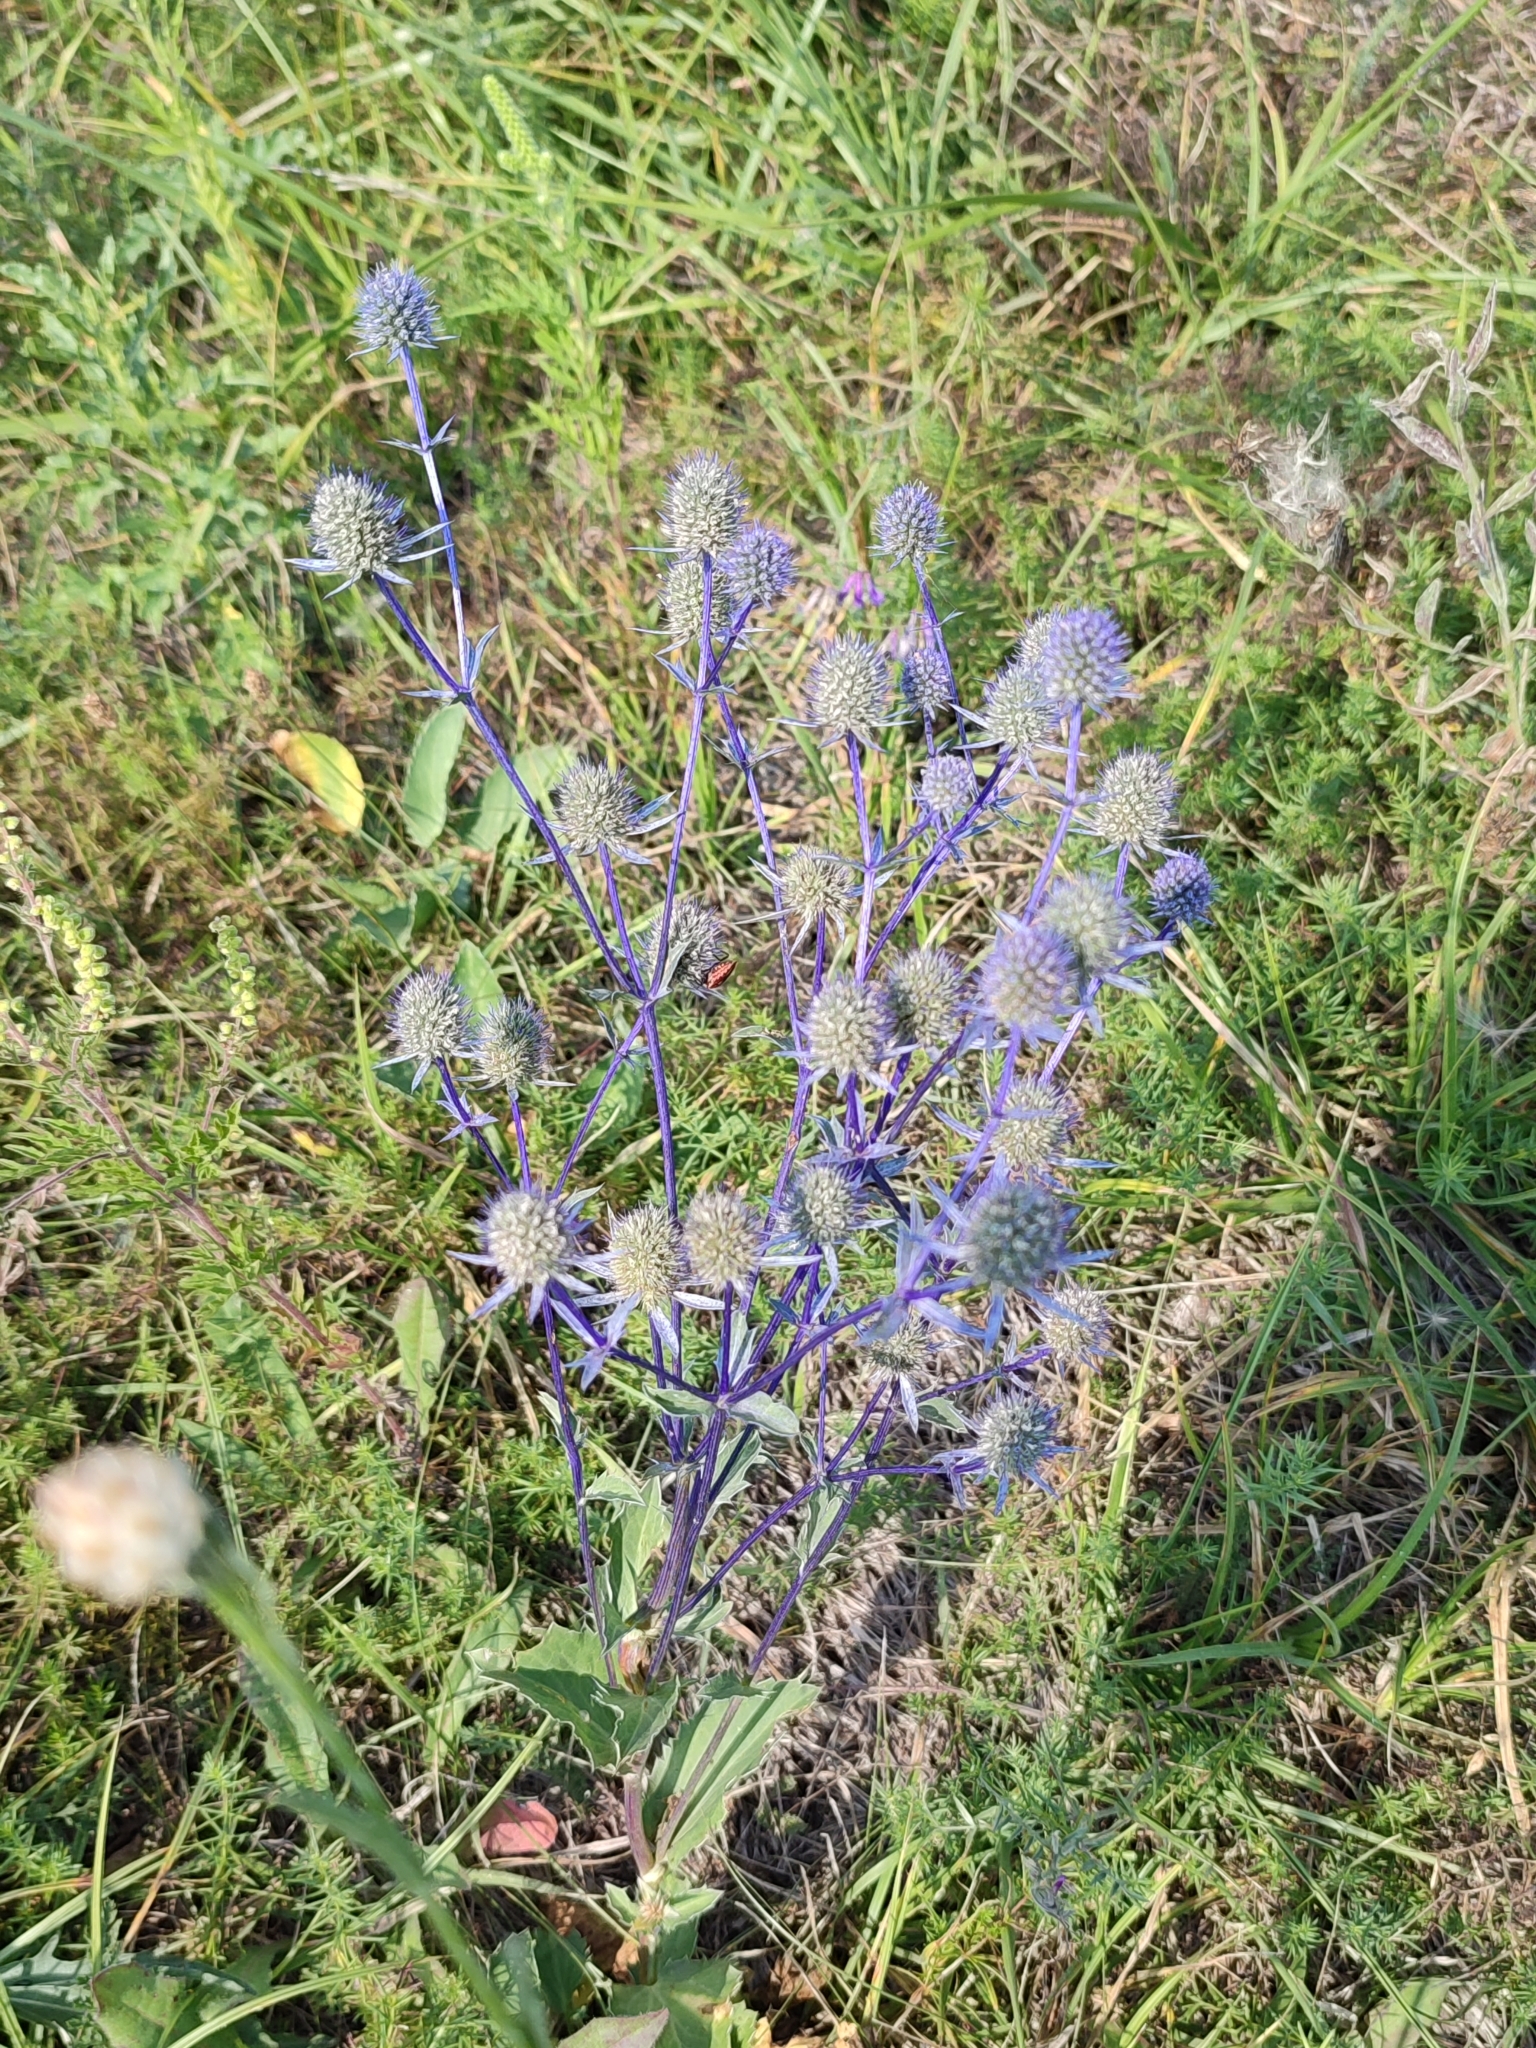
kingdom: Plantae
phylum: Tracheophyta
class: Magnoliopsida
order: Apiales
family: Apiaceae
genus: Eryngium
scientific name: Eryngium planum
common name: Blue eryngo
